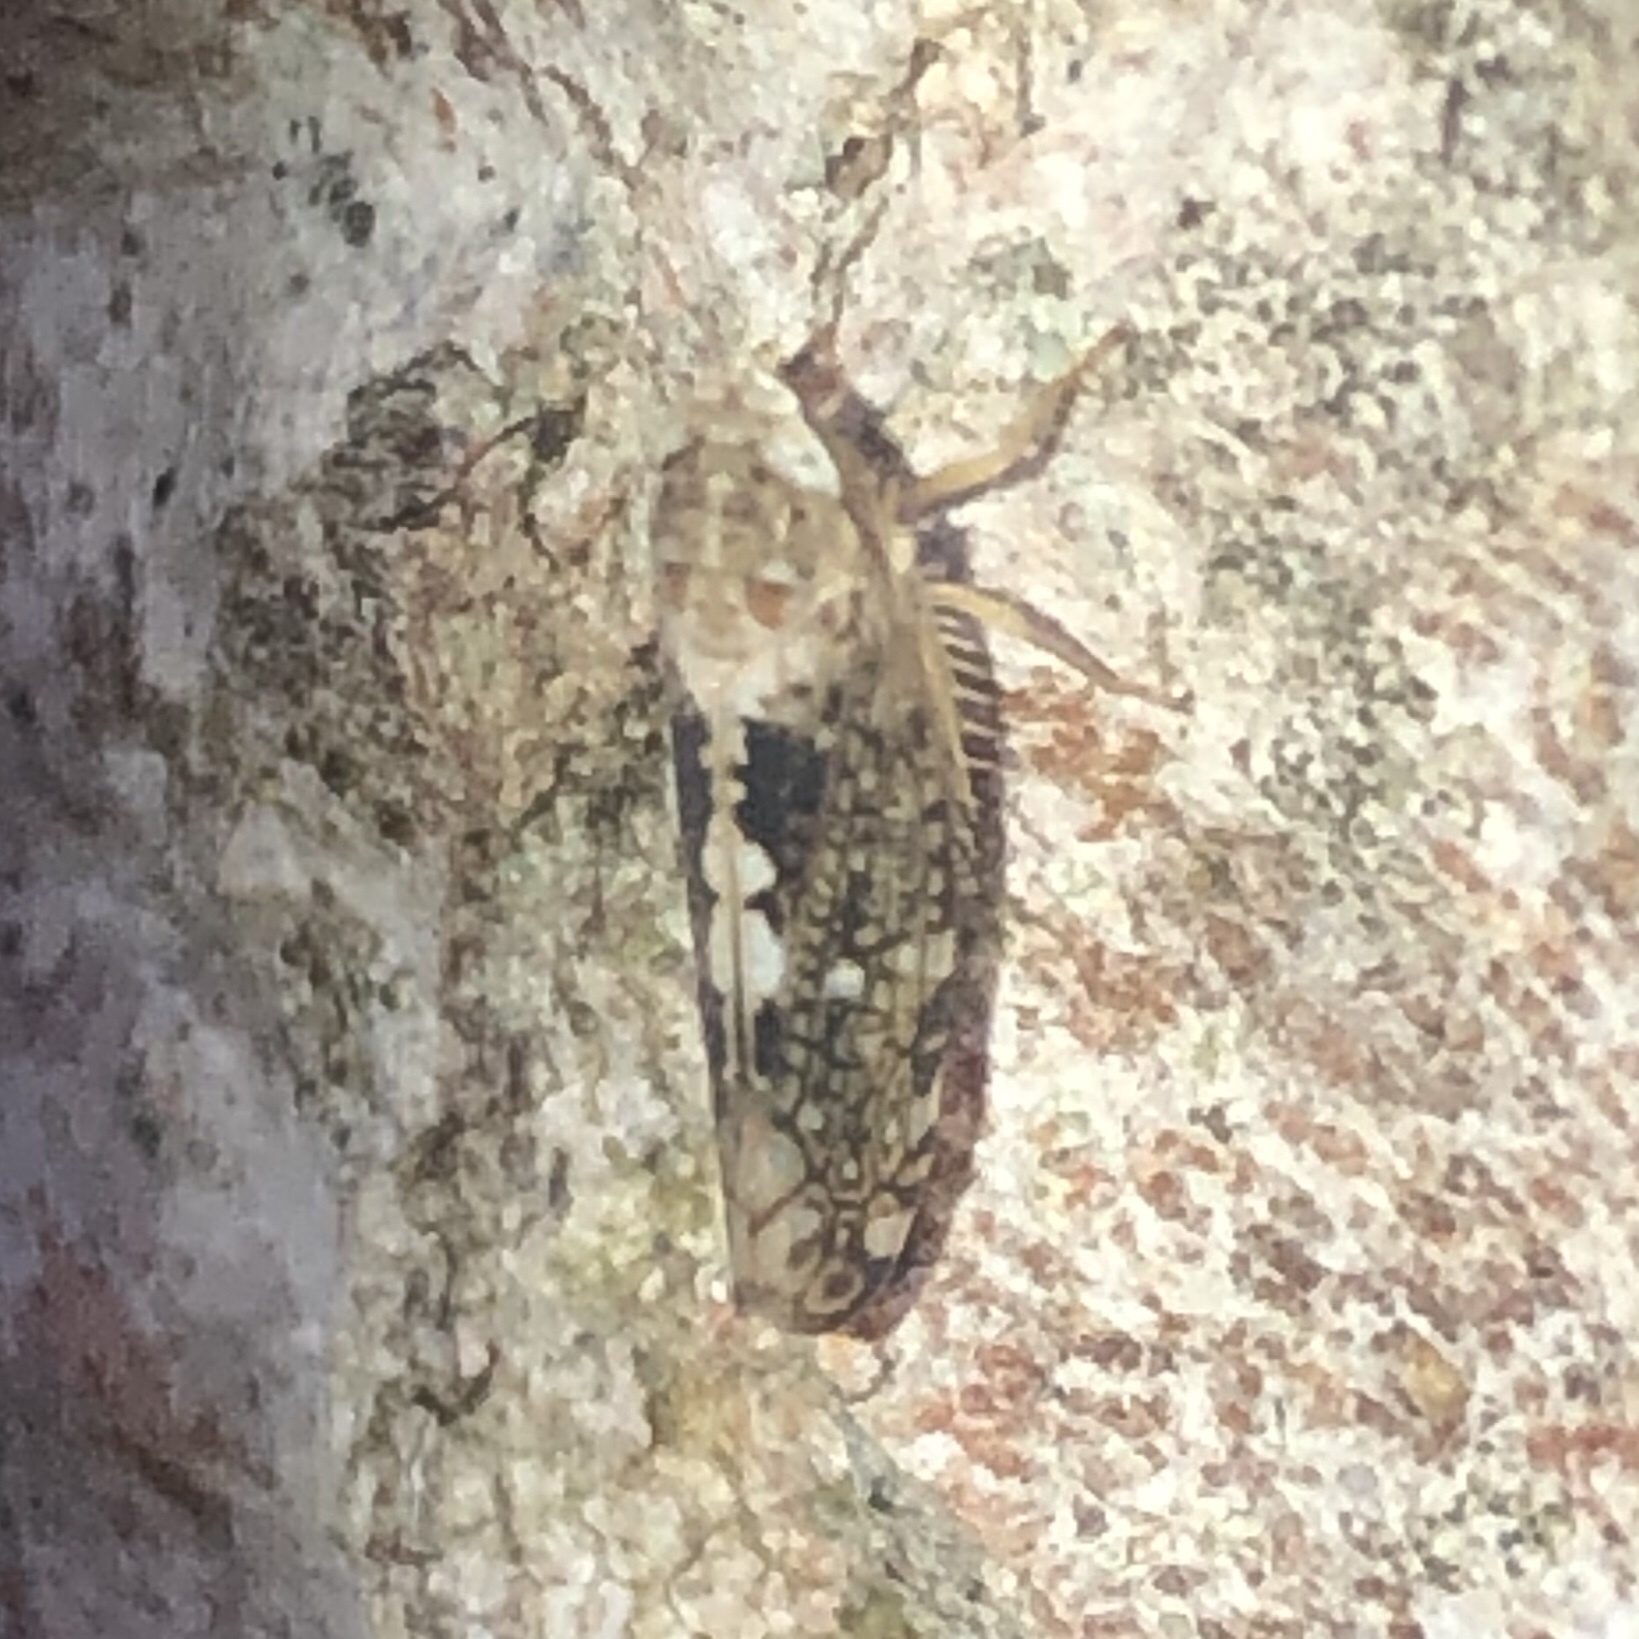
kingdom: Animalia
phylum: Arthropoda
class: Insecta
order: Hemiptera
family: Cicadellidae
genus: Prescottia
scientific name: Prescottia lobata
